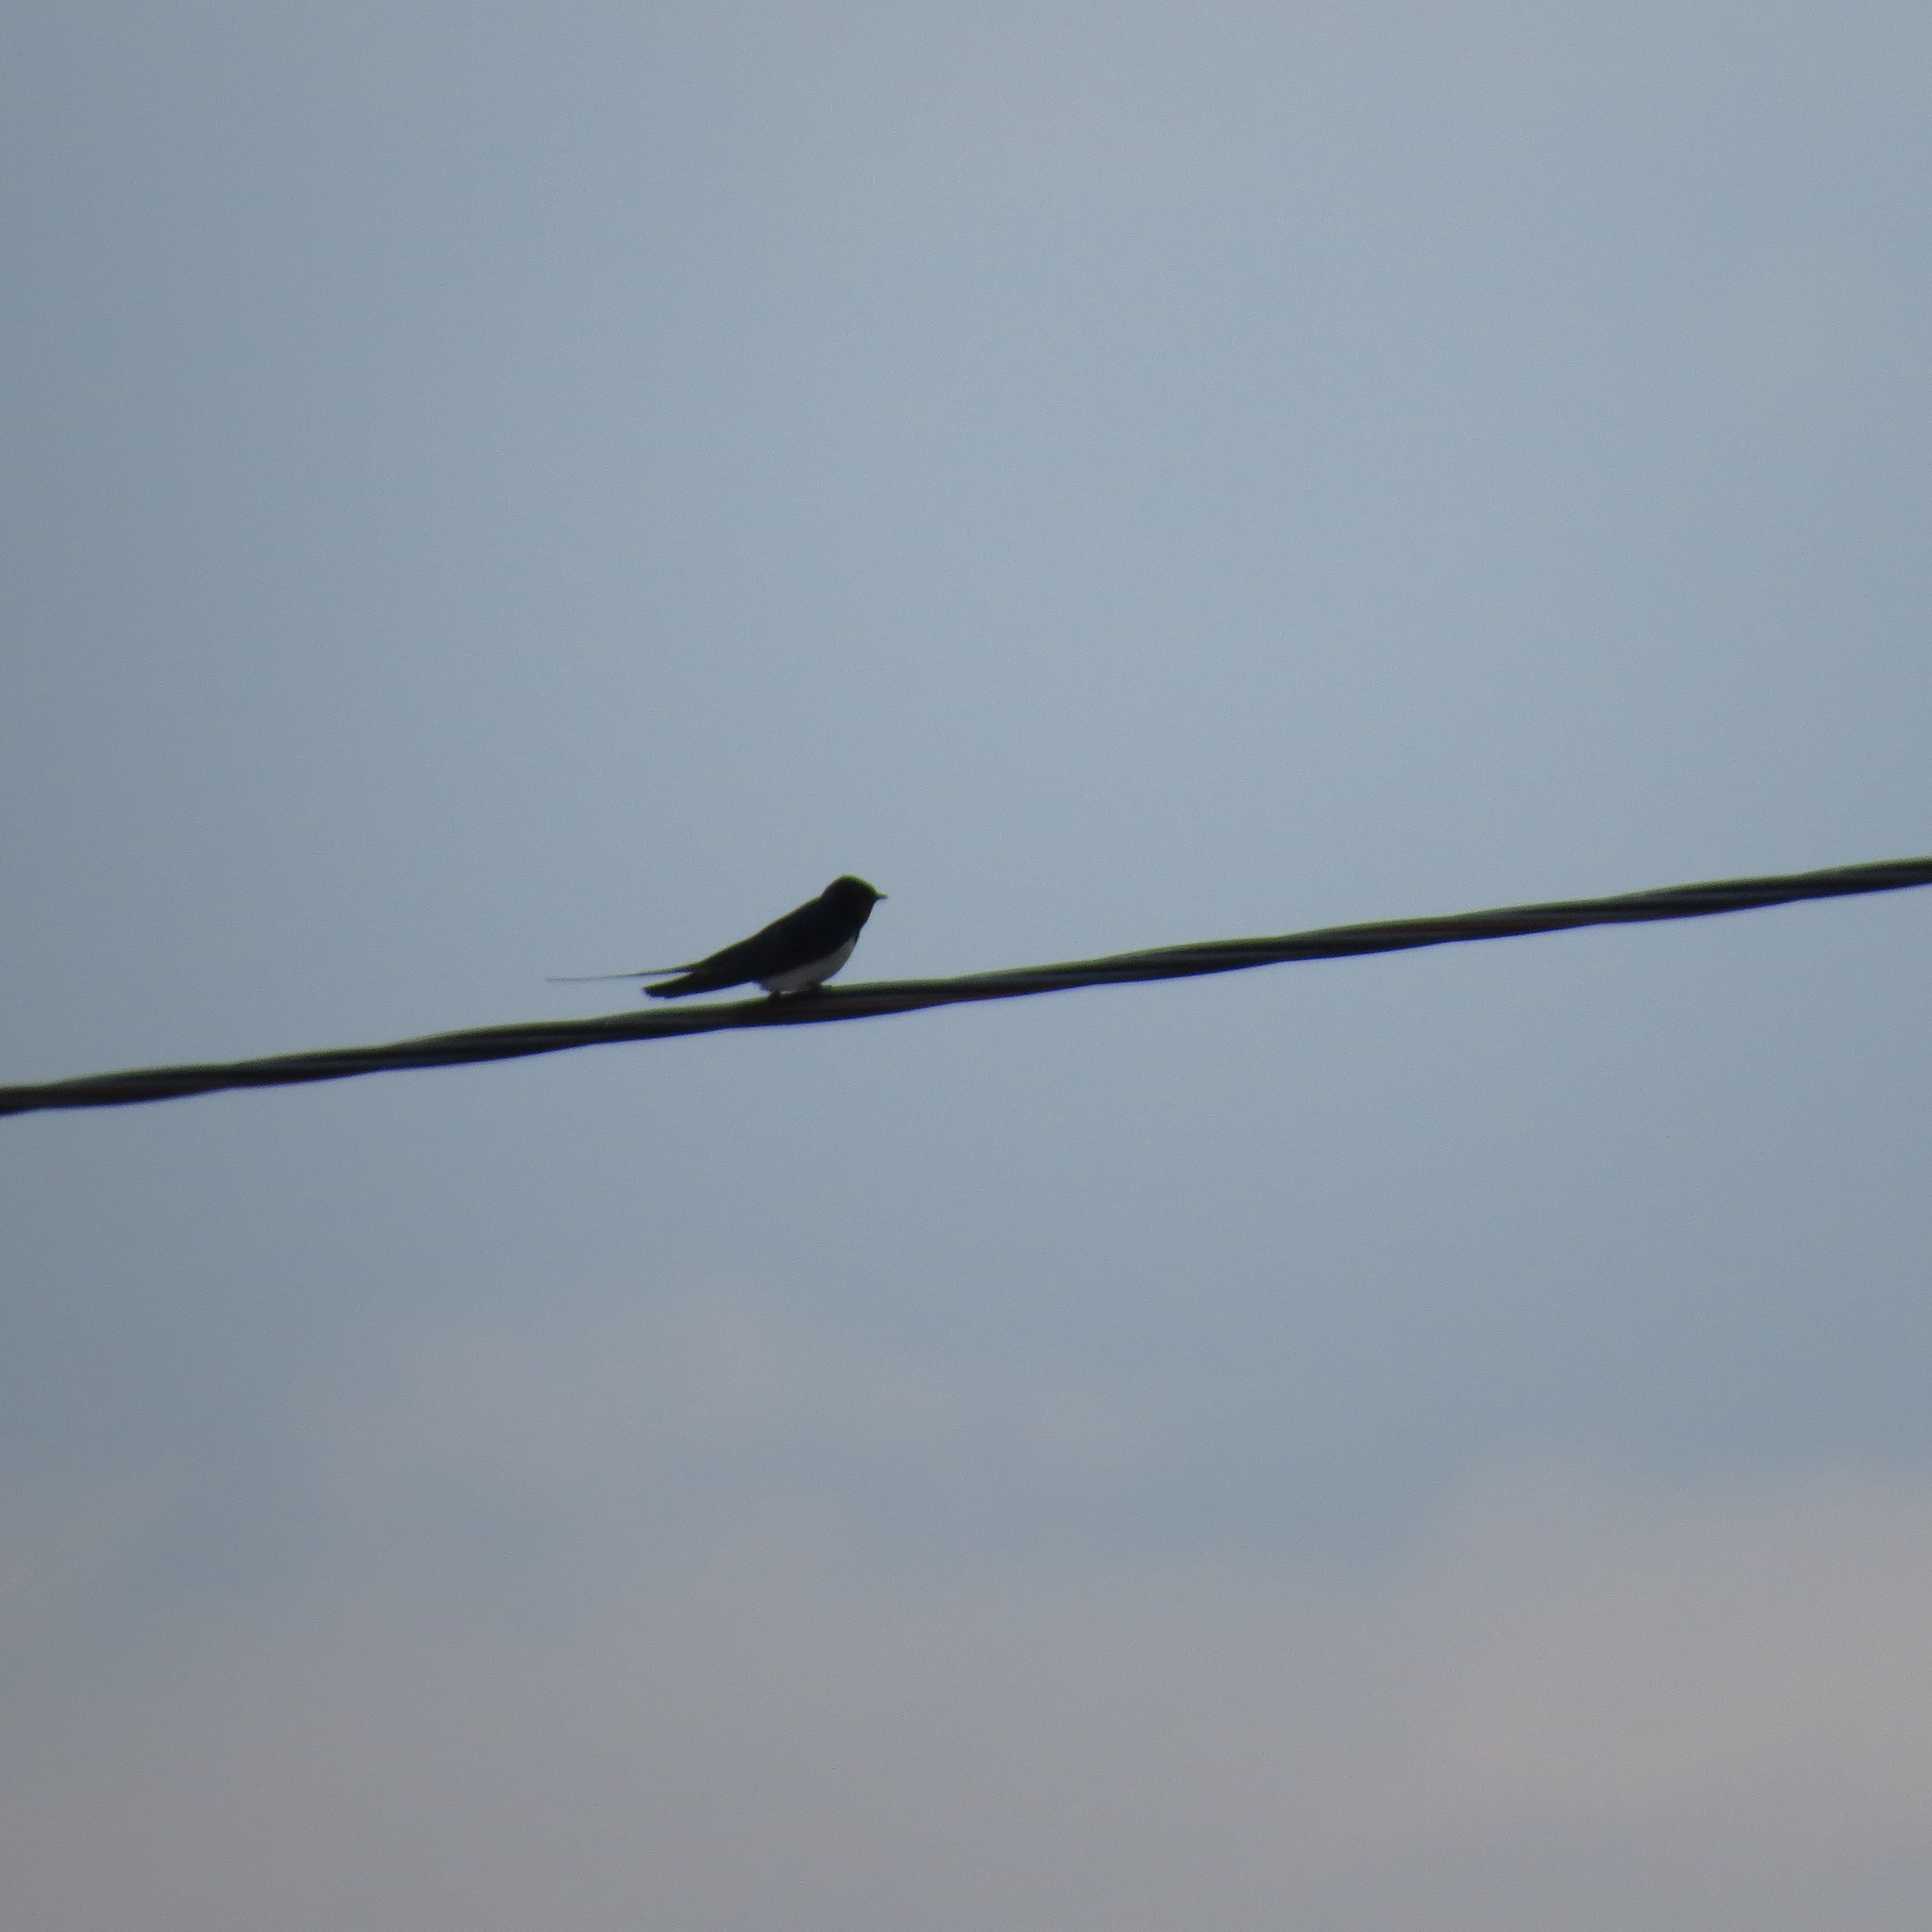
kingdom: Animalia
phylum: Chordata
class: Aves
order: Passeriformes
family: Hirundinidae
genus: Hirundo
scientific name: Hirundo rustica
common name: Barn swallow
